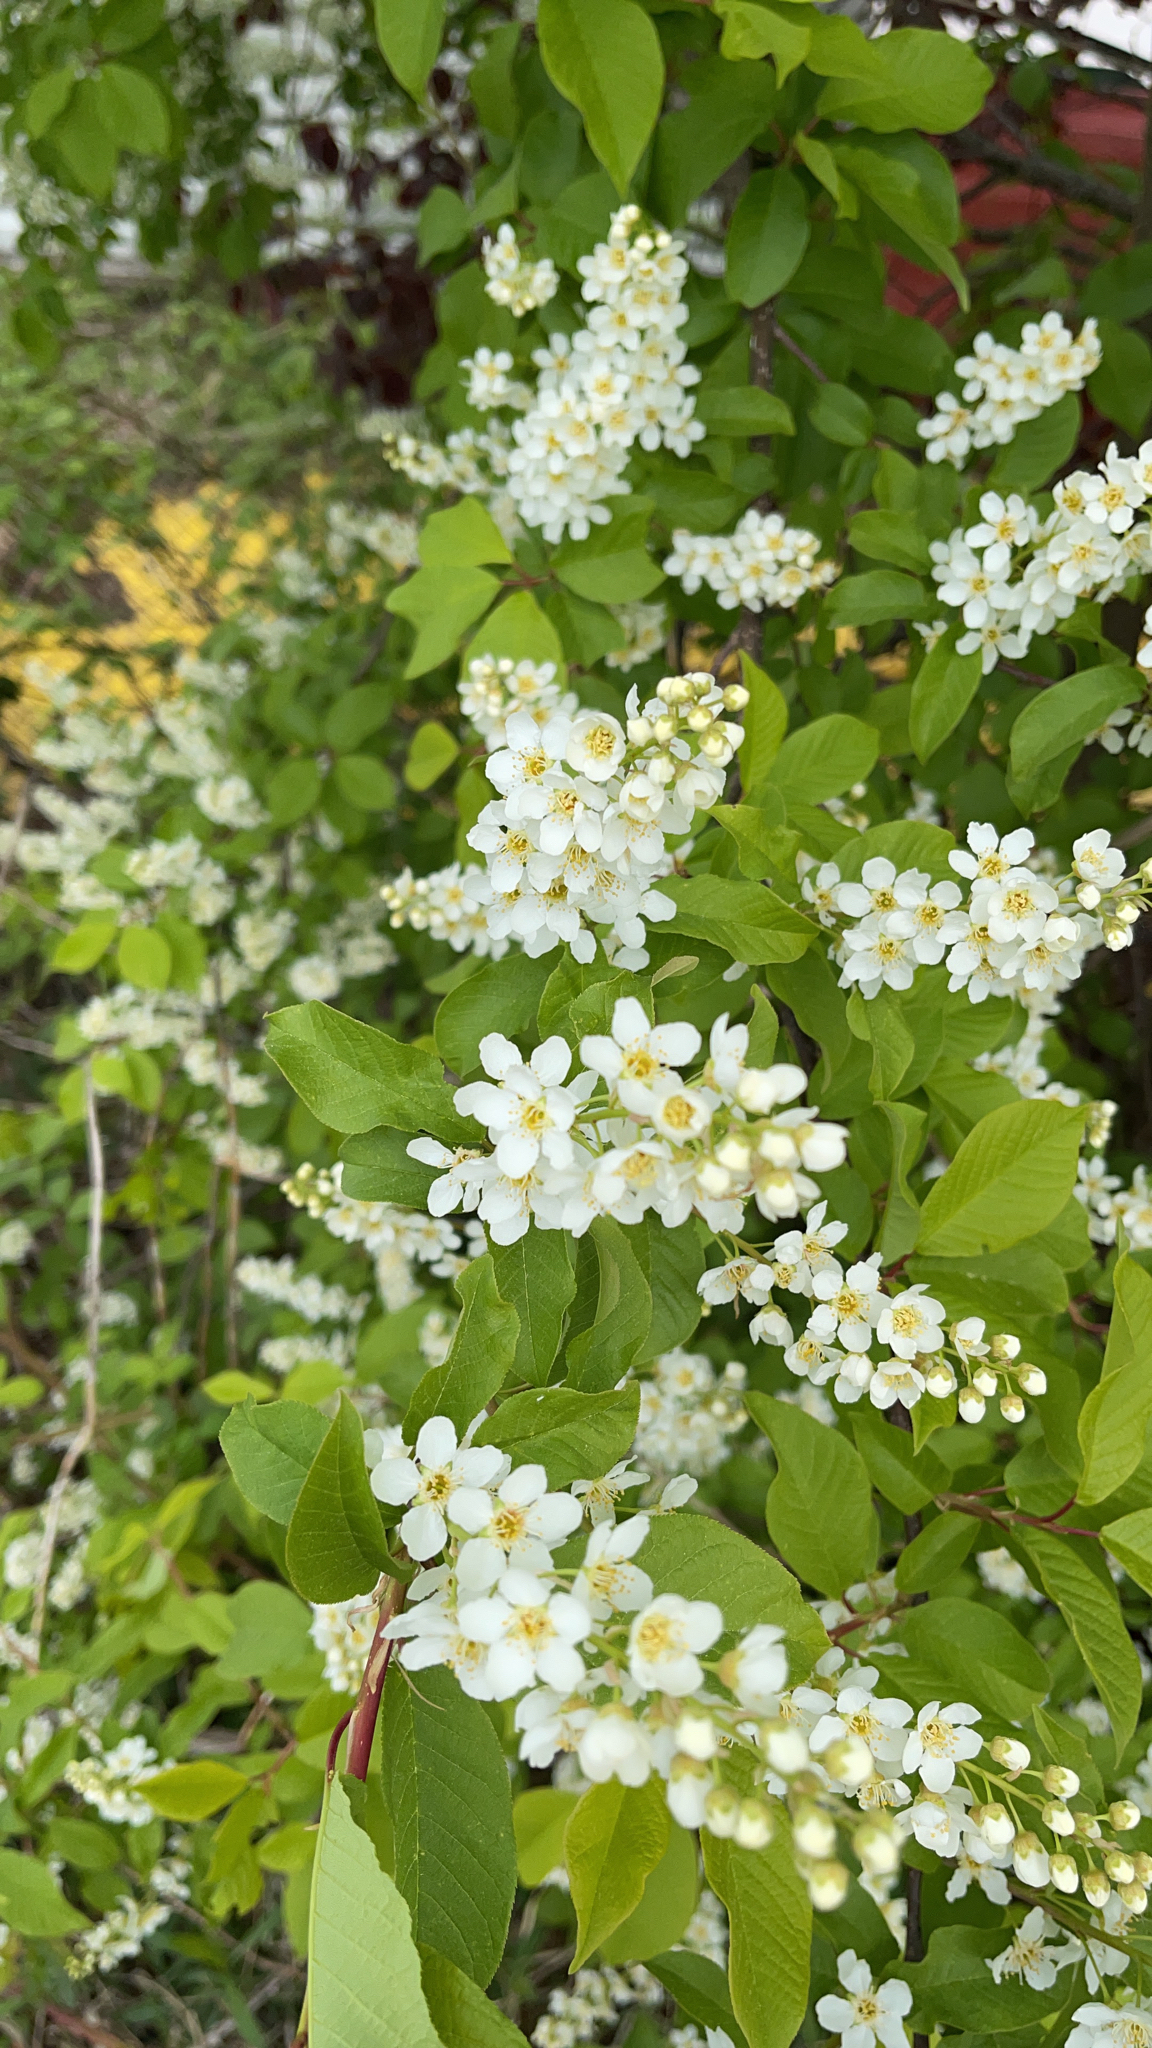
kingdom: Plantae
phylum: Tracheophyta
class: Magnoliopsida
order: Rosales
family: Rosaceae
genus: Prunus
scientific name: Prunus padus
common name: Bird cherry
